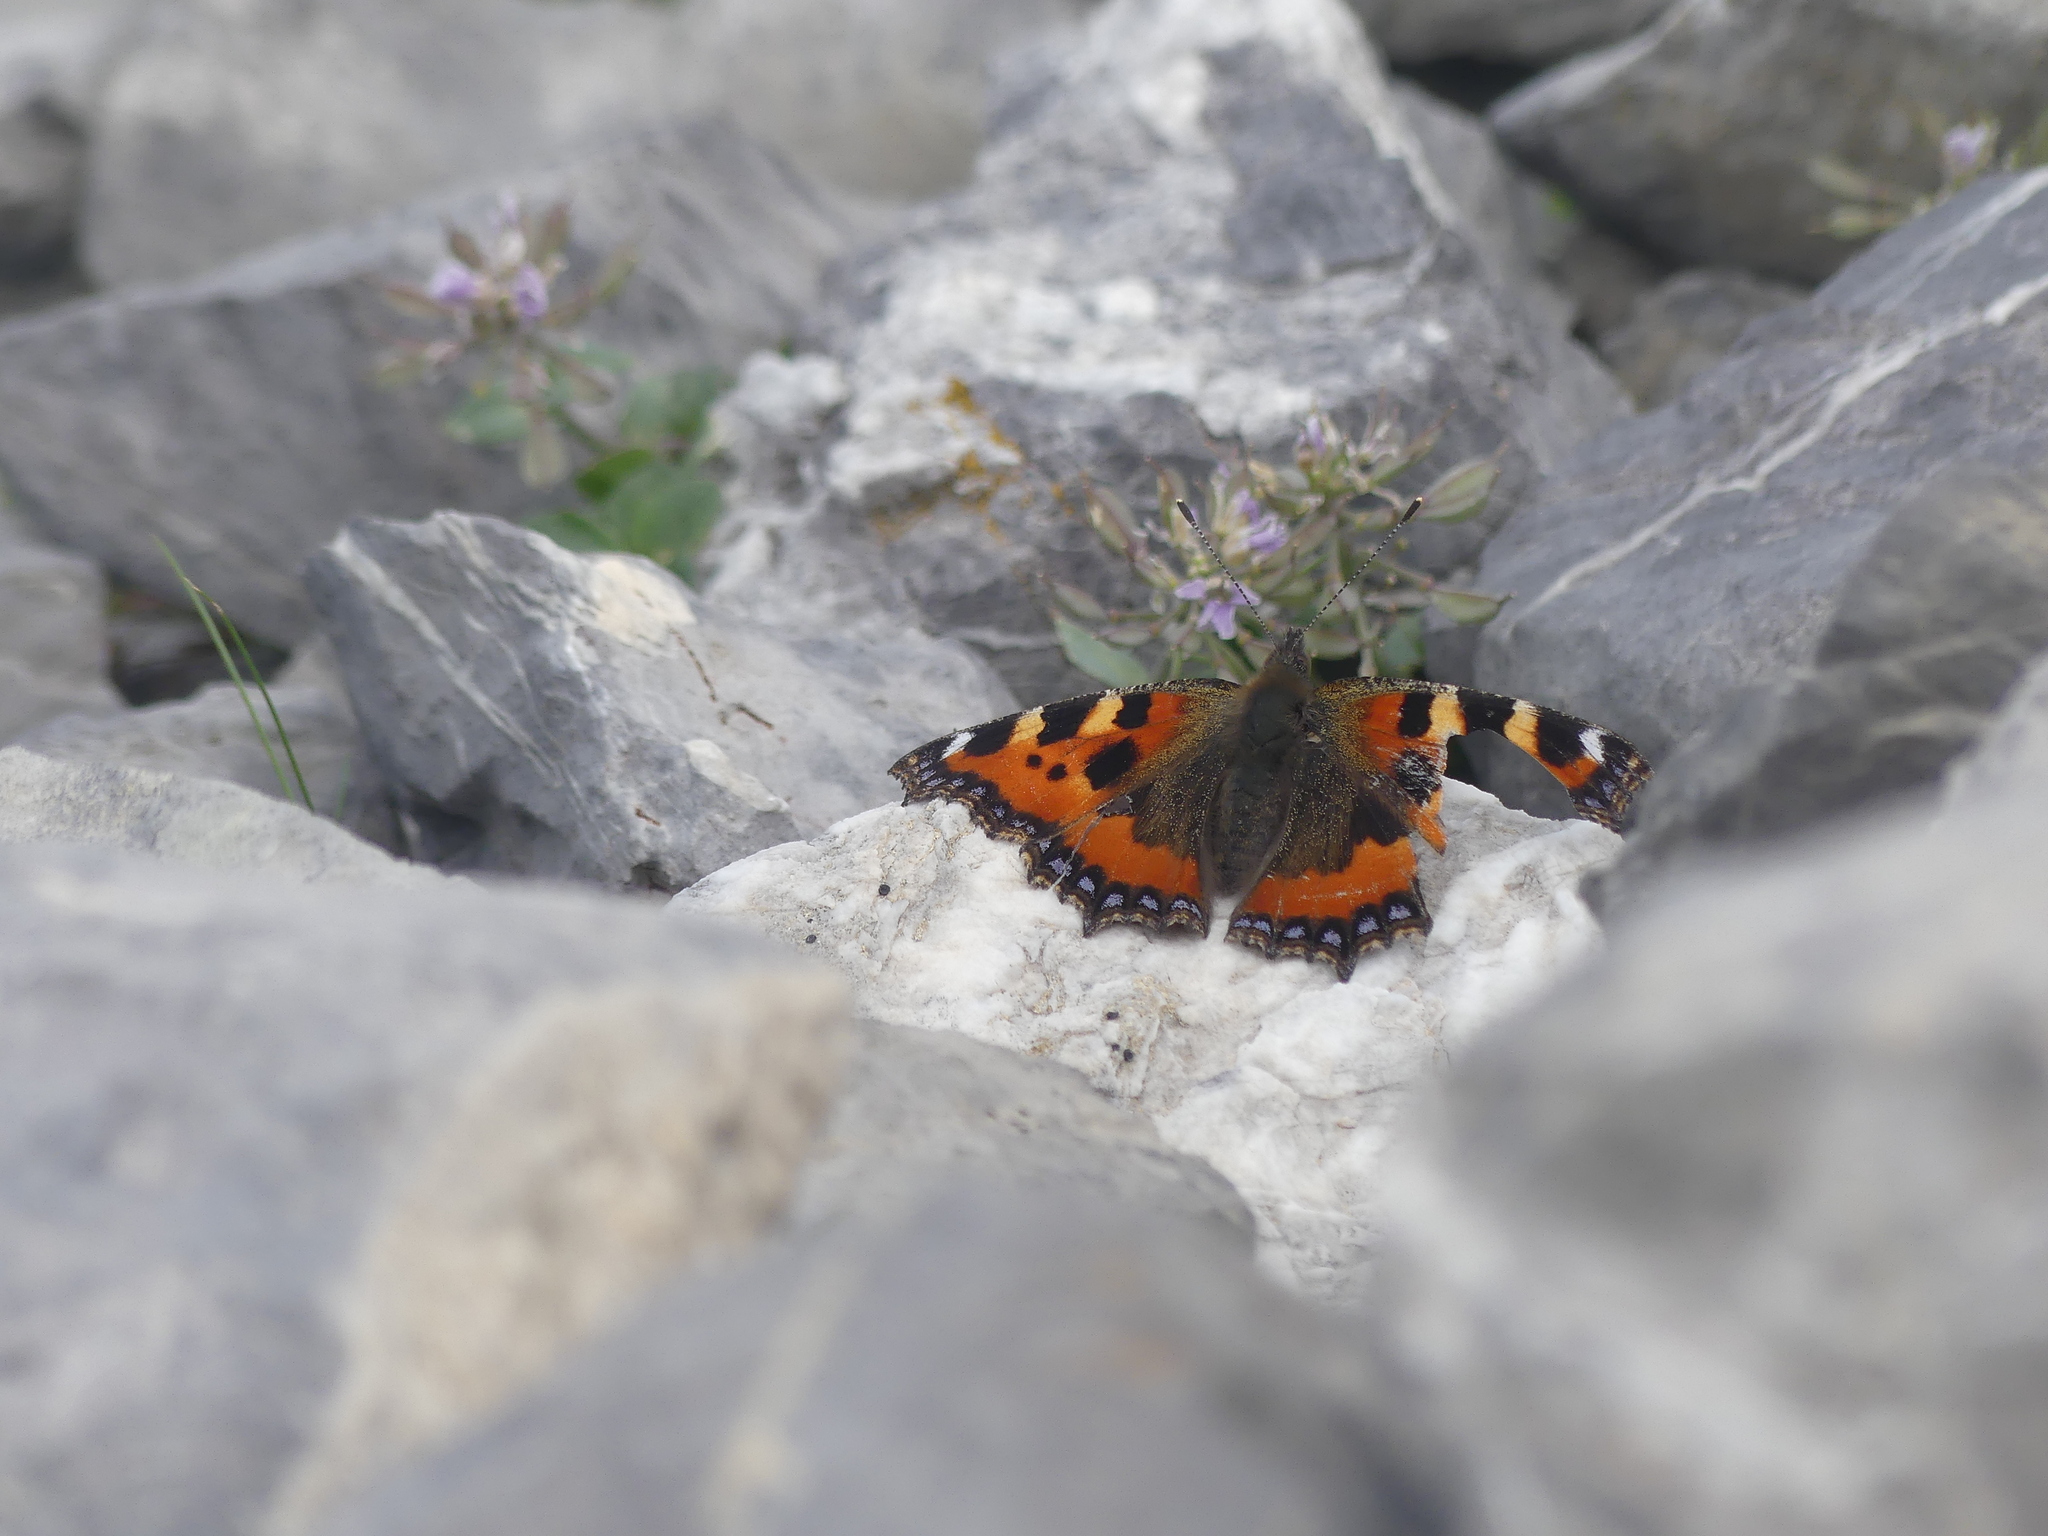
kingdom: Animalia
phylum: Arthropoda
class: Insecta
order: Lepidoptera
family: Nymphalidae
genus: Aglais
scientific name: Aglais urticae
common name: Small tortoiseshell
